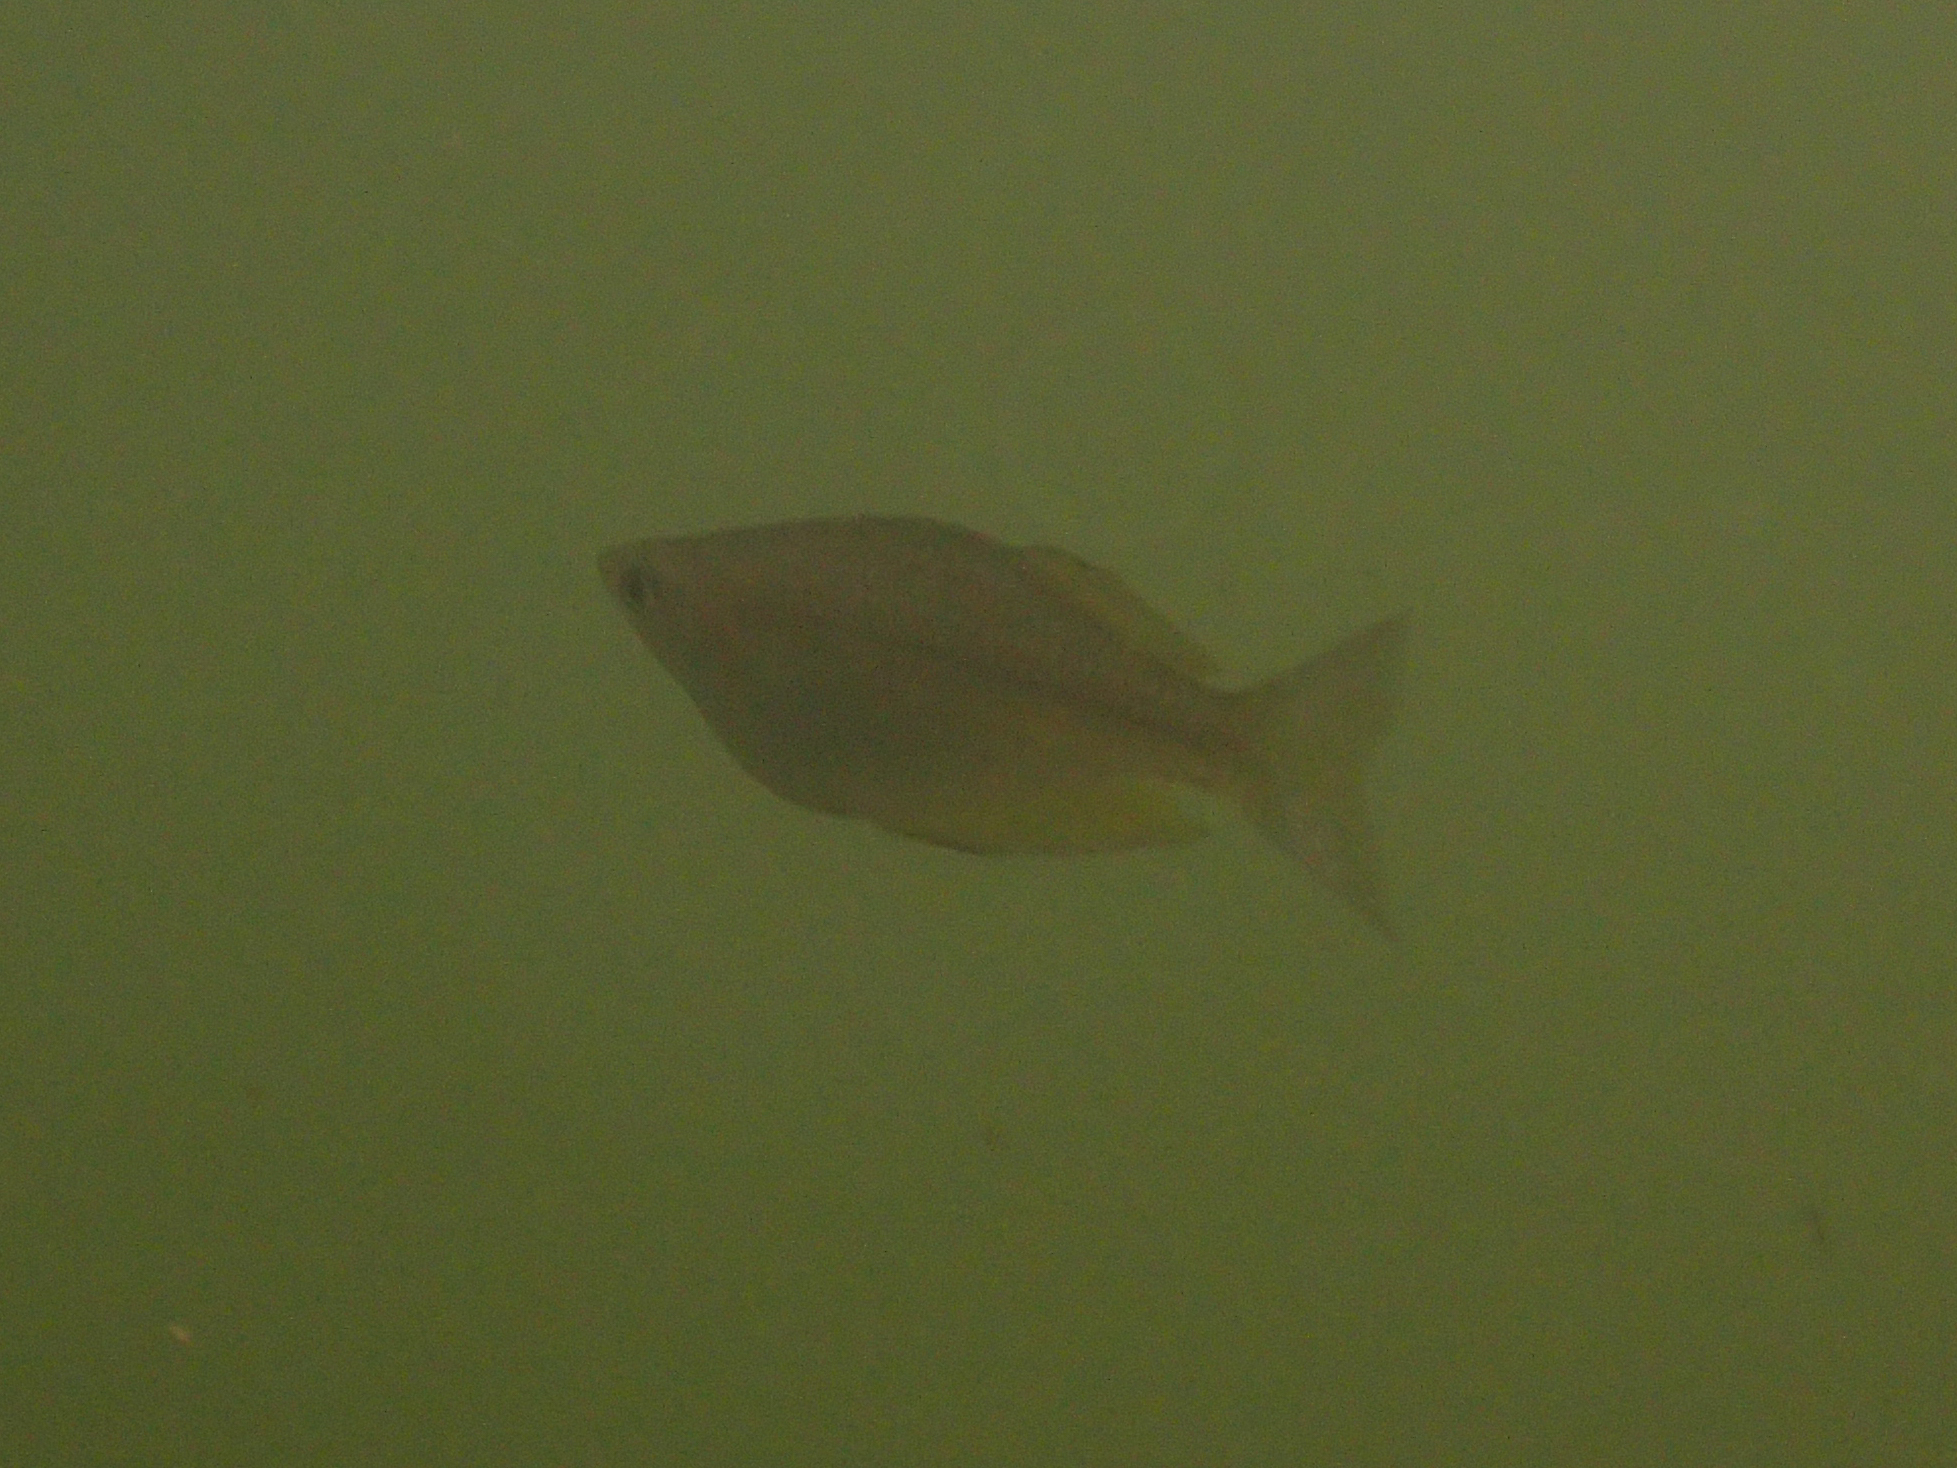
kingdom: Animalia
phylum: Chordata
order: Atheriniformes
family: Melanotaeniidae
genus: Melanotaenia
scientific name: Melanotaenia splendida
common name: Checkered rainbowfish
